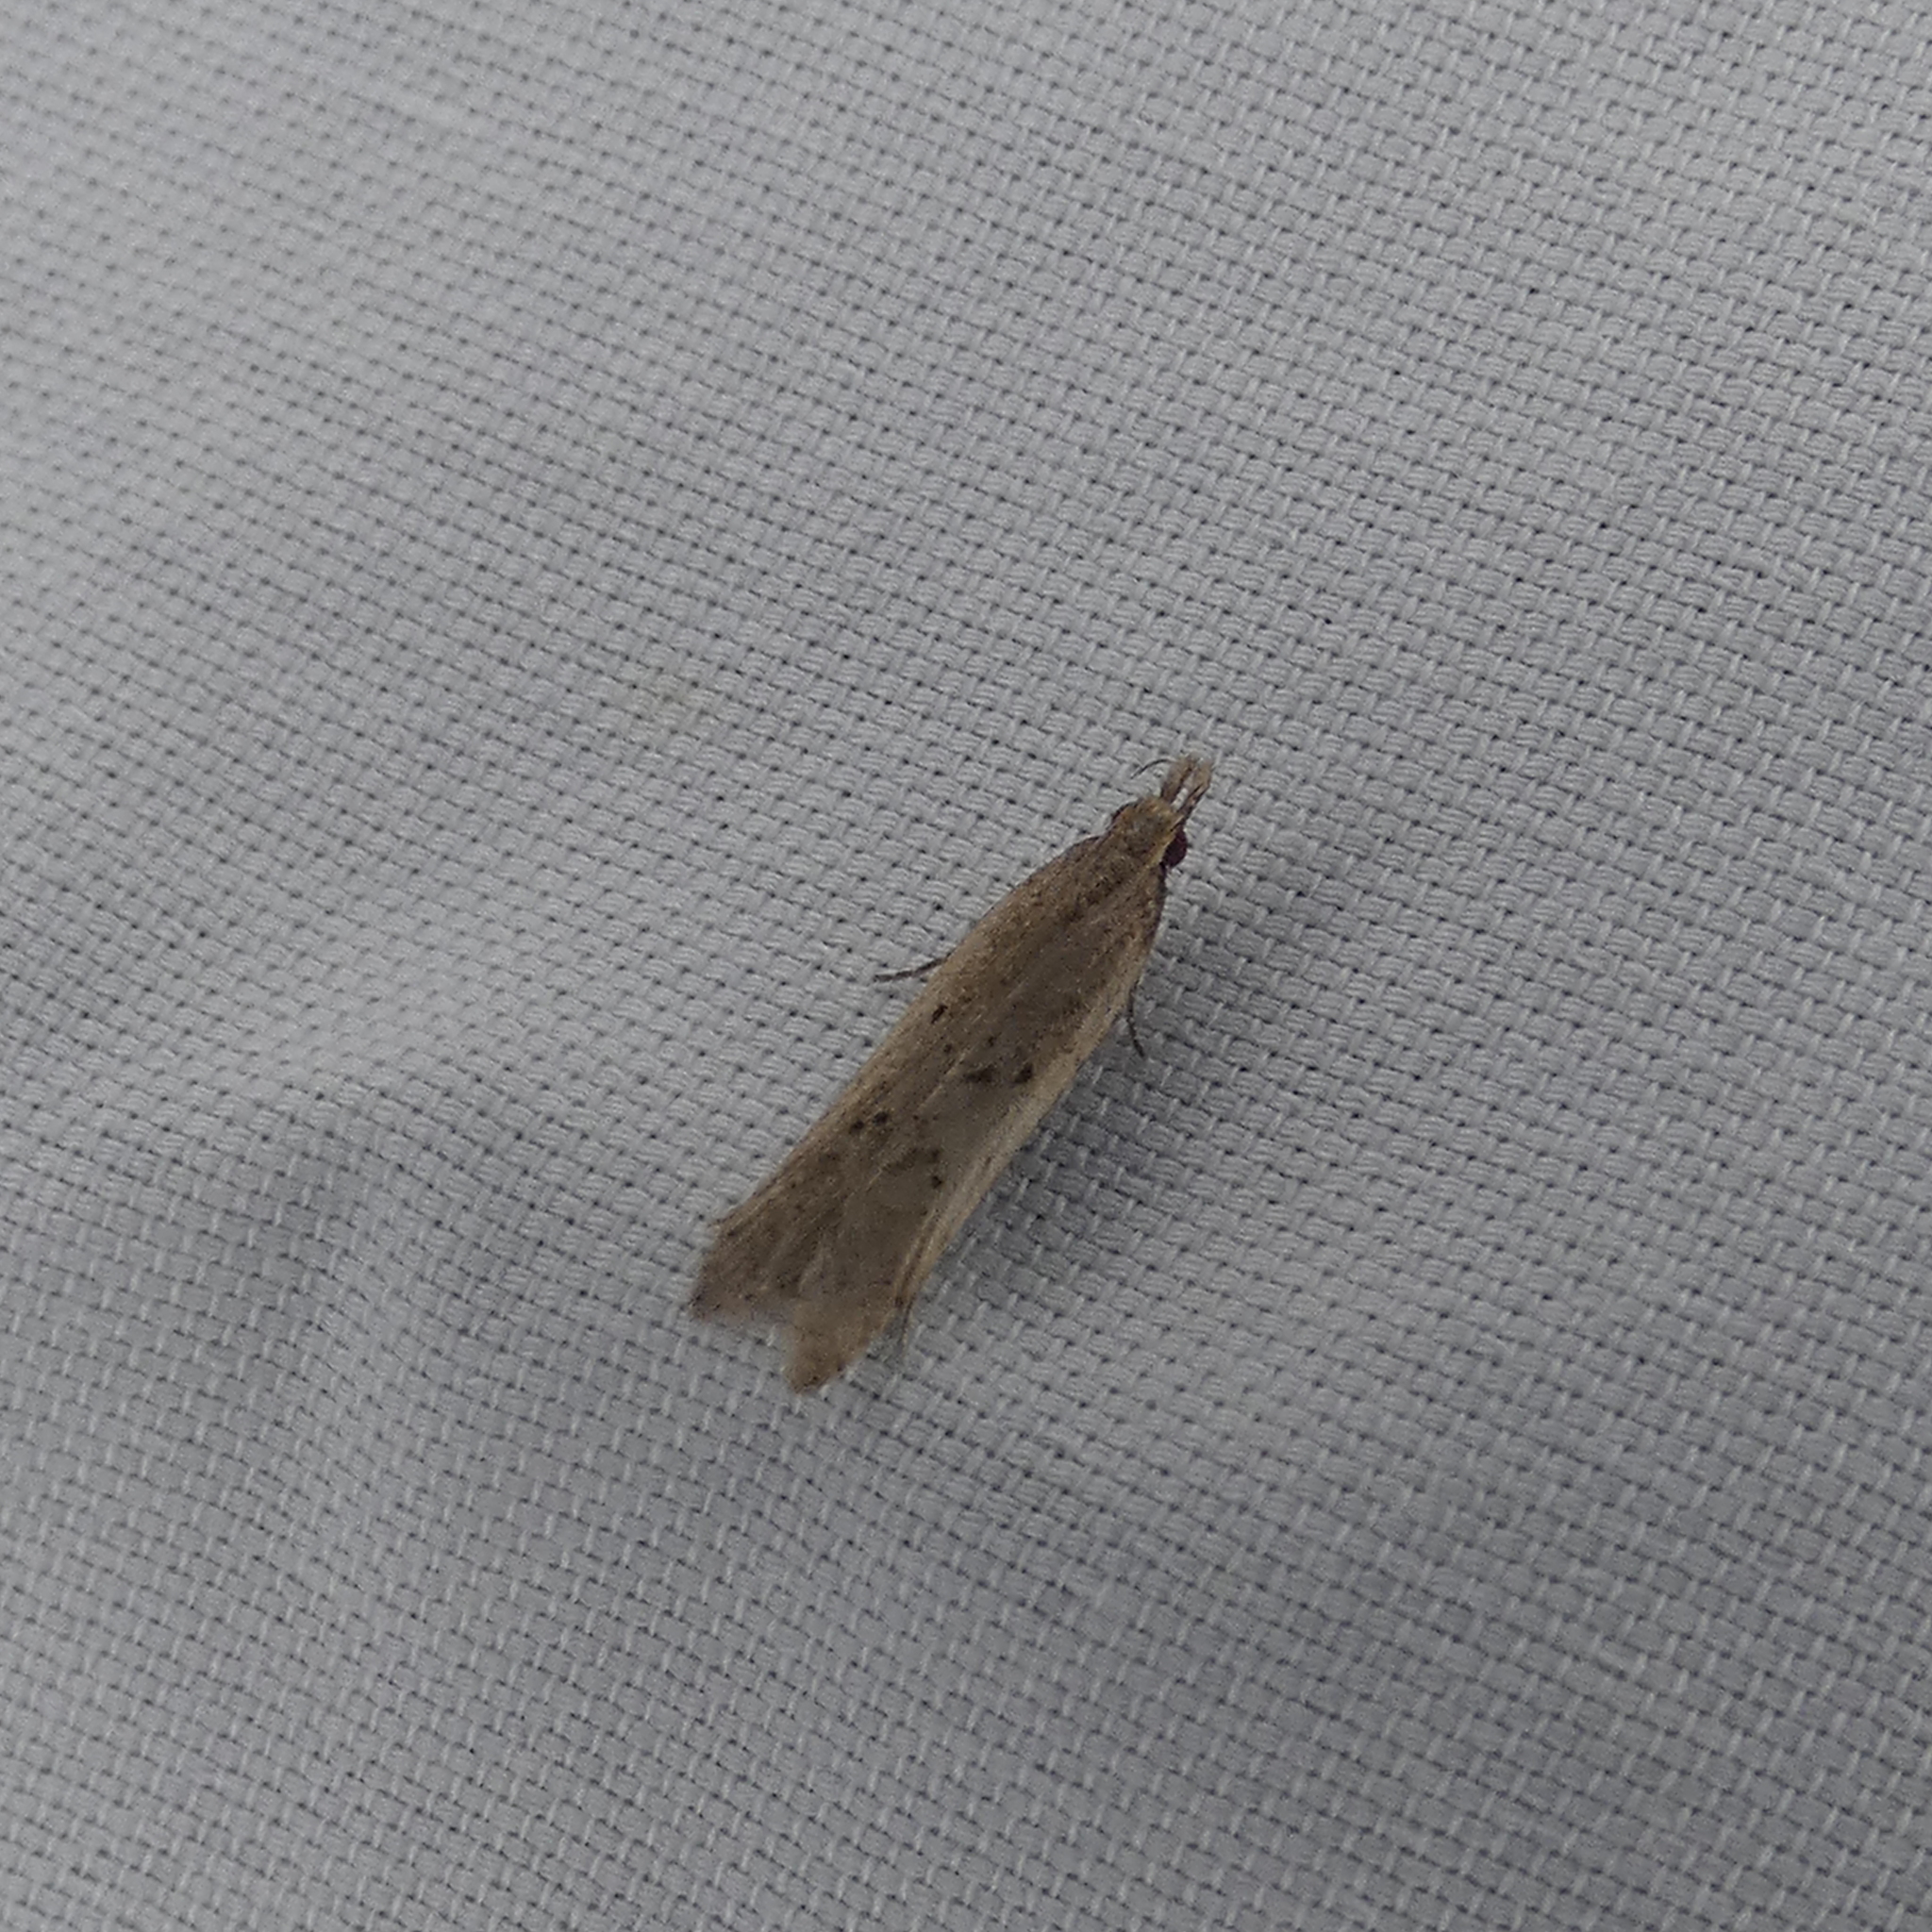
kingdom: Animalia
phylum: Arthropoda
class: Insecta
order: Lepidoptera
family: Gelechiidae
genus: Dichomeris
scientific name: Dichomeris ligulella
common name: Moth
